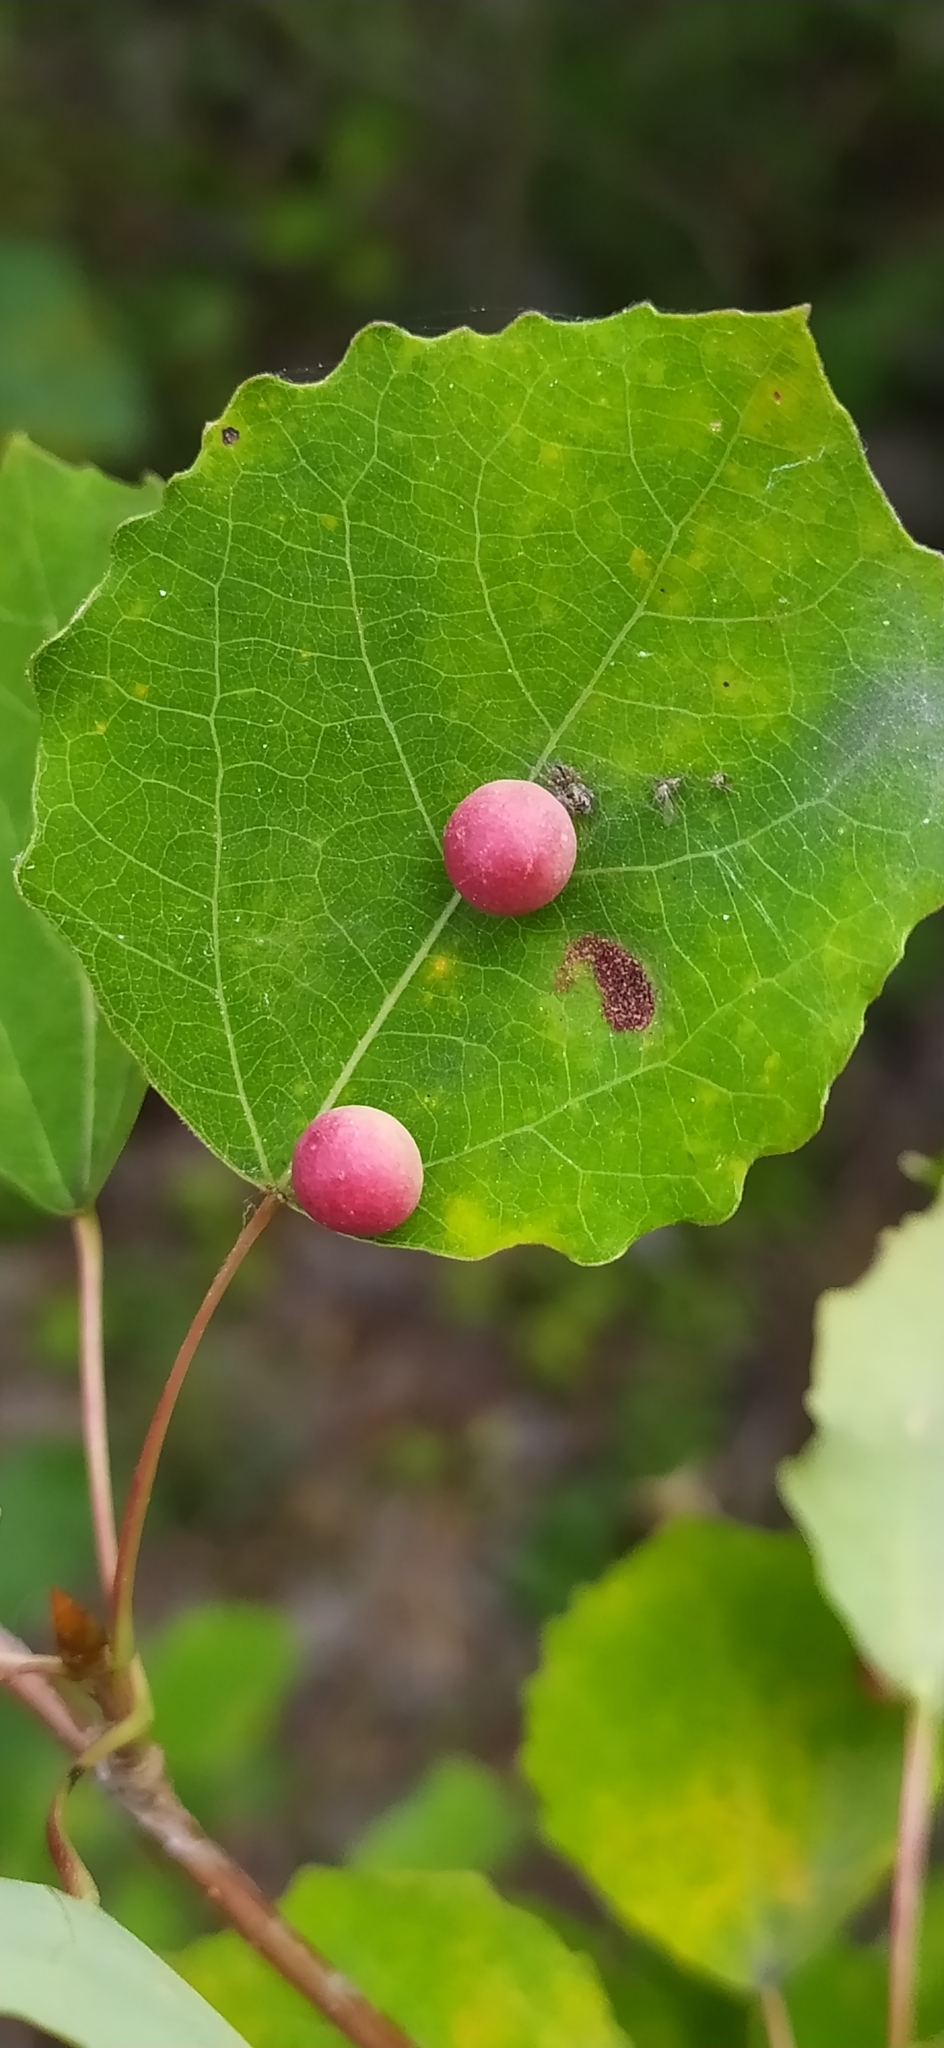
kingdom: Animalia
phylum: Arthropoda
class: Insecta
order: Diptera
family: Cecidomyiidae
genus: Harmandiola
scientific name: Harmandiola tremulae
